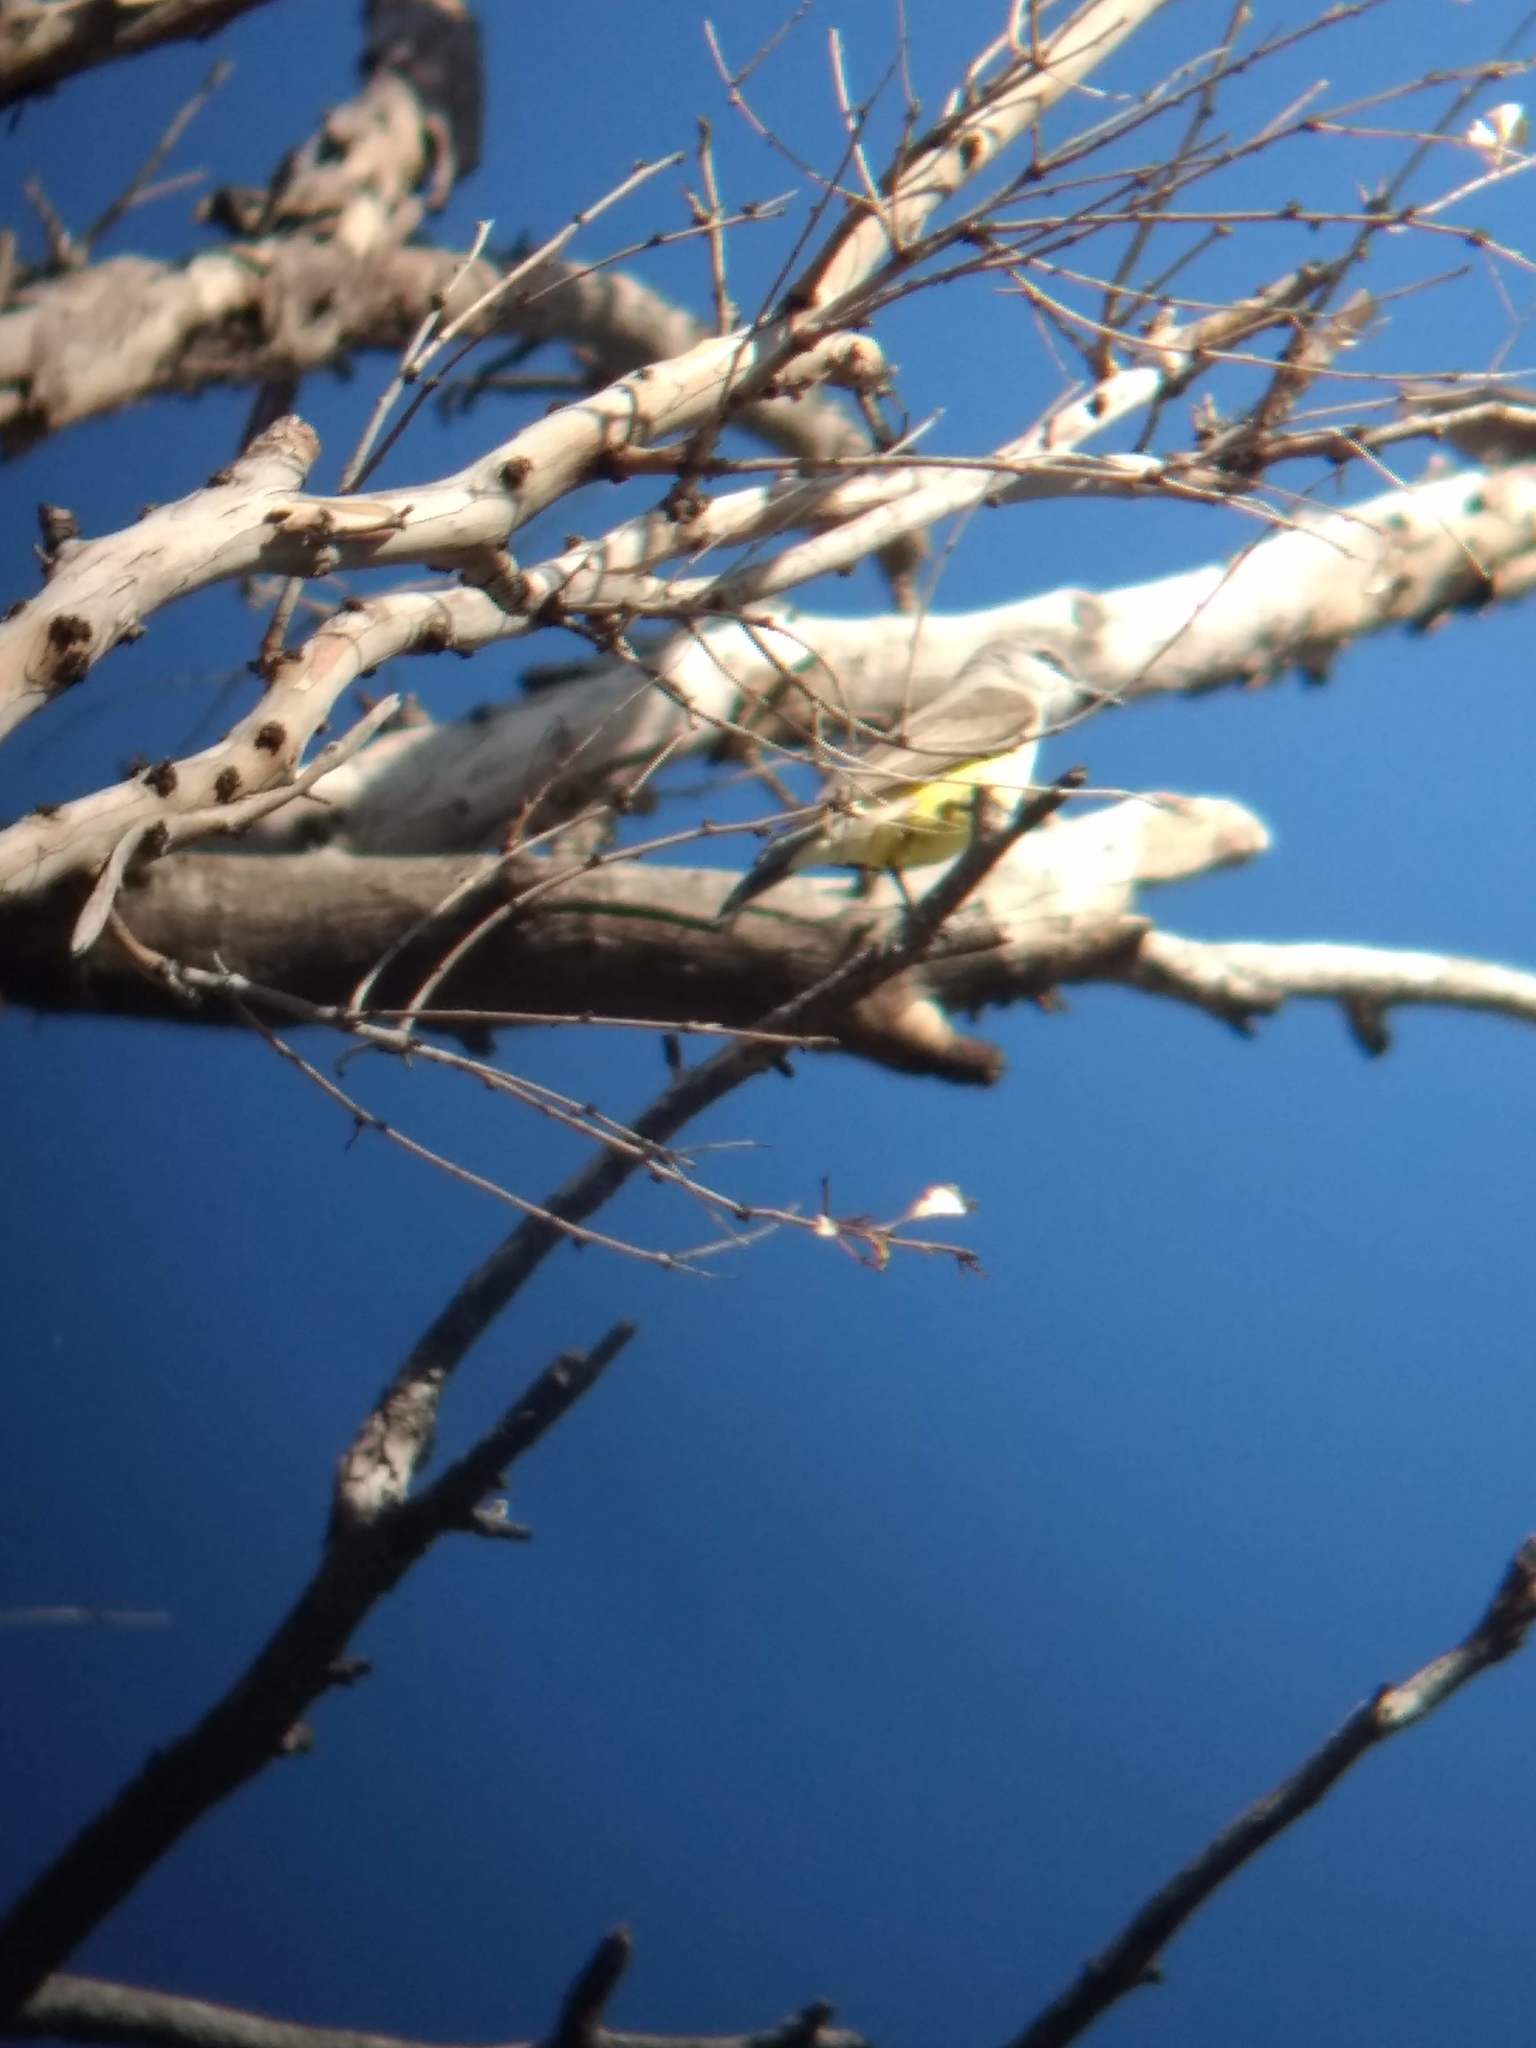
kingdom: Animalia
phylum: Chordata
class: Aves
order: Passeriformes
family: Tyrannidae
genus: Tyrannus
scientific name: Tyrannus verticalis
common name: Western kingbird
